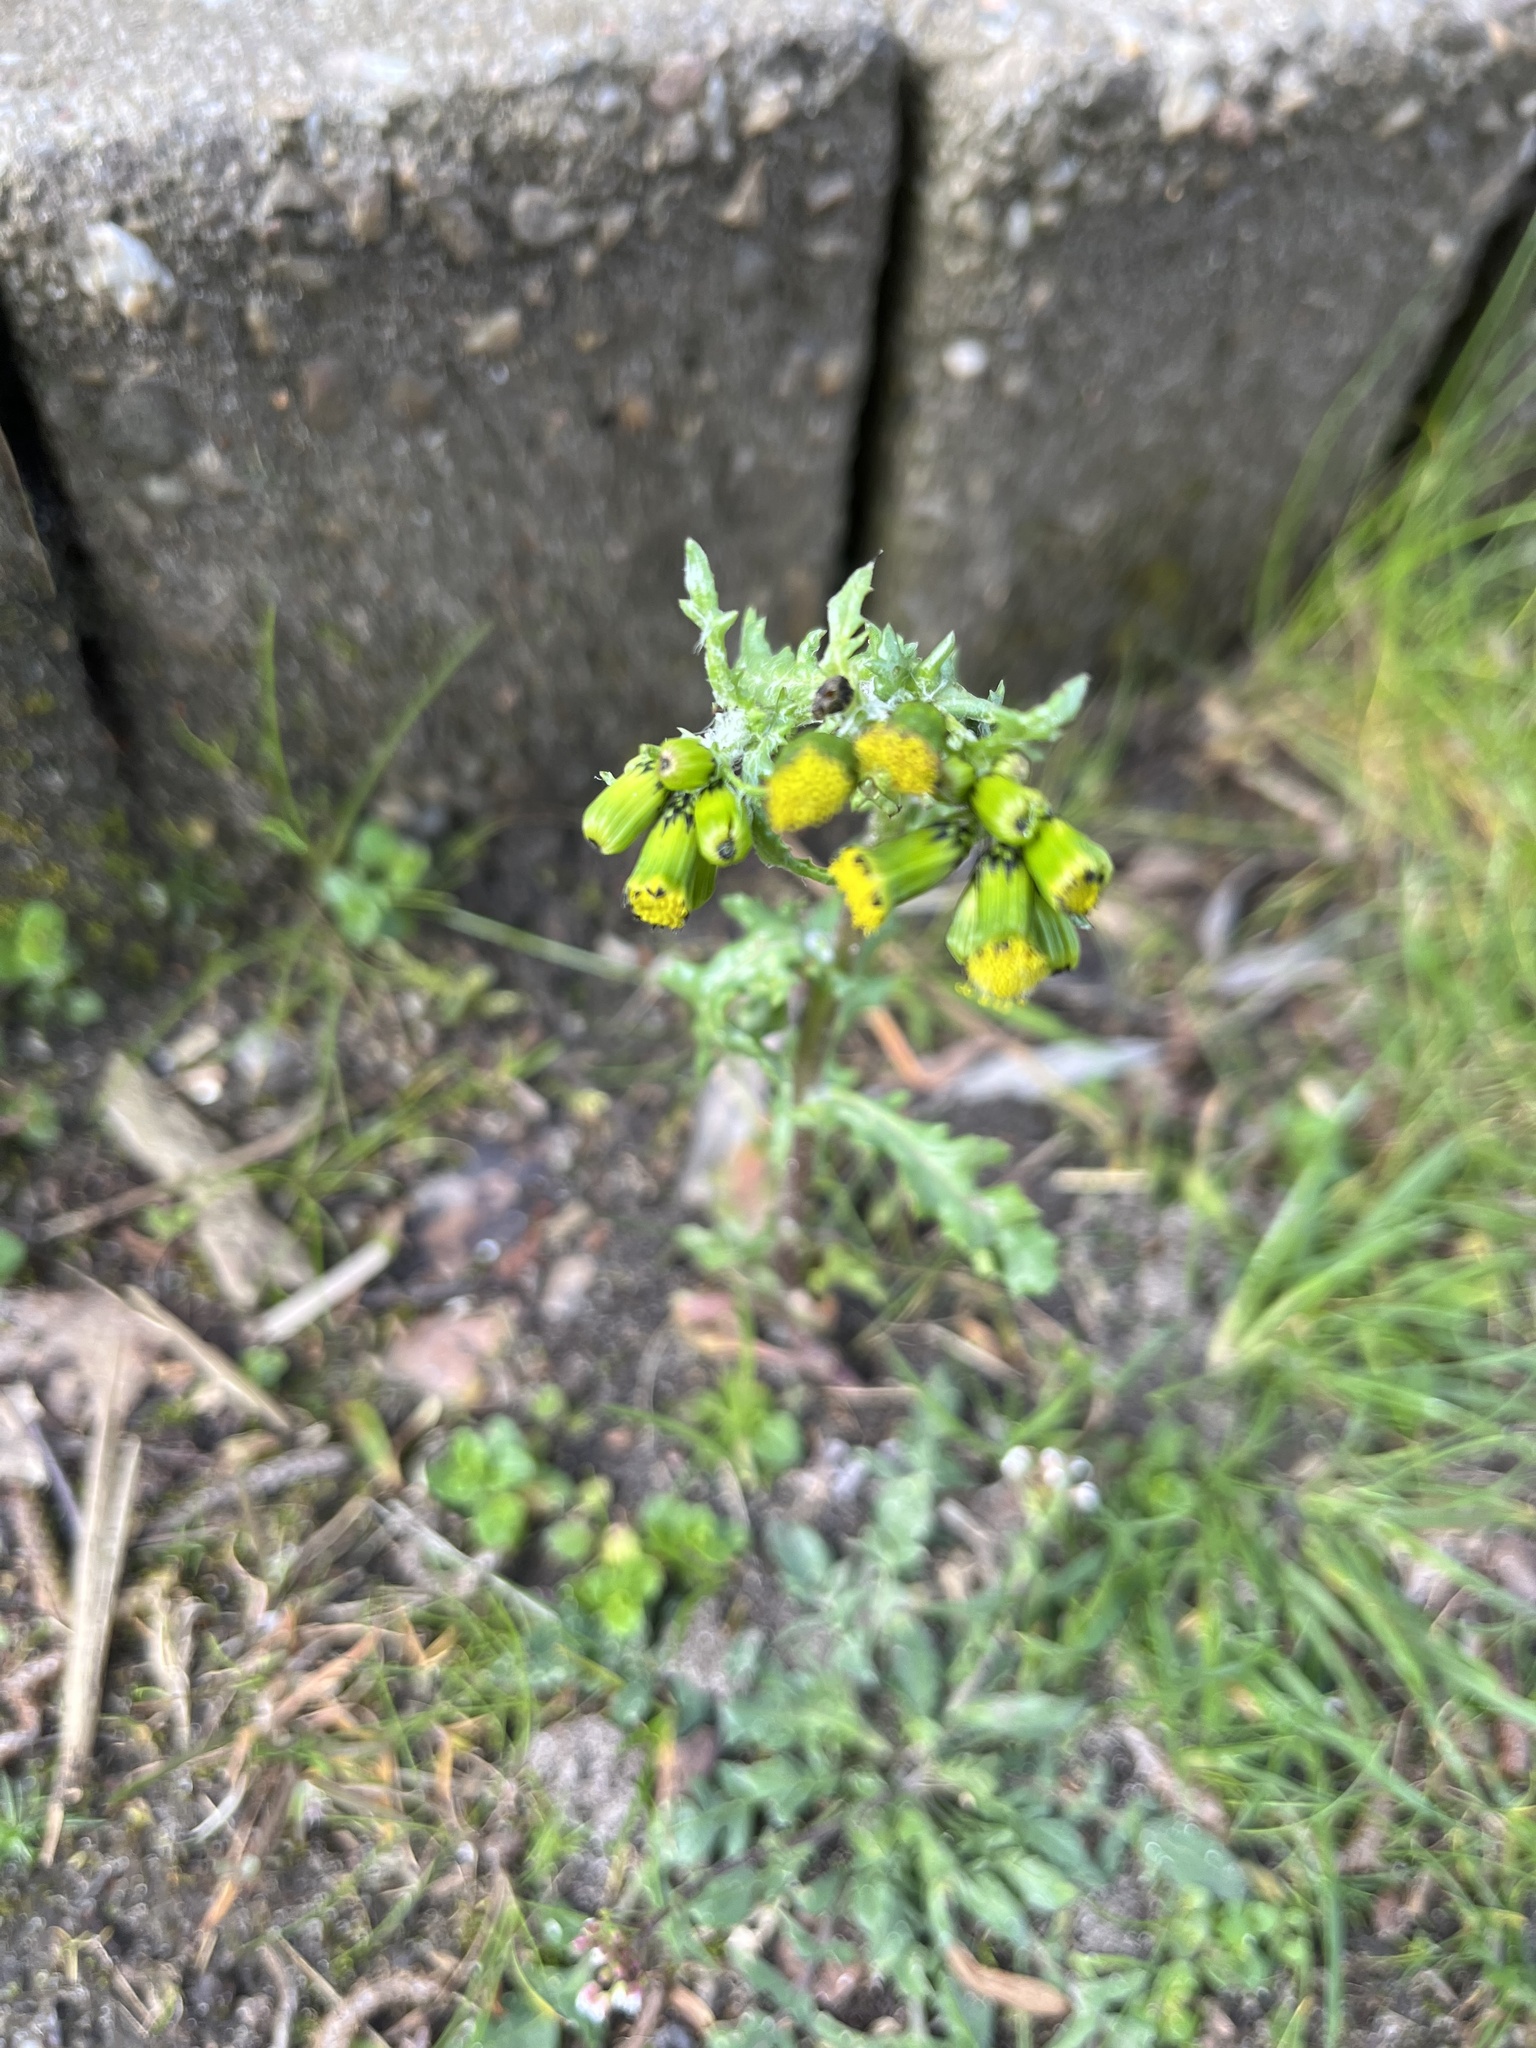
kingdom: Plantae
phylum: Tracheophyta
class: Magnoliopsida
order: Asterales
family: Asteraceae
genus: Senecio
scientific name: Senecio vulgaris
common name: Old-man-in-the-spring
